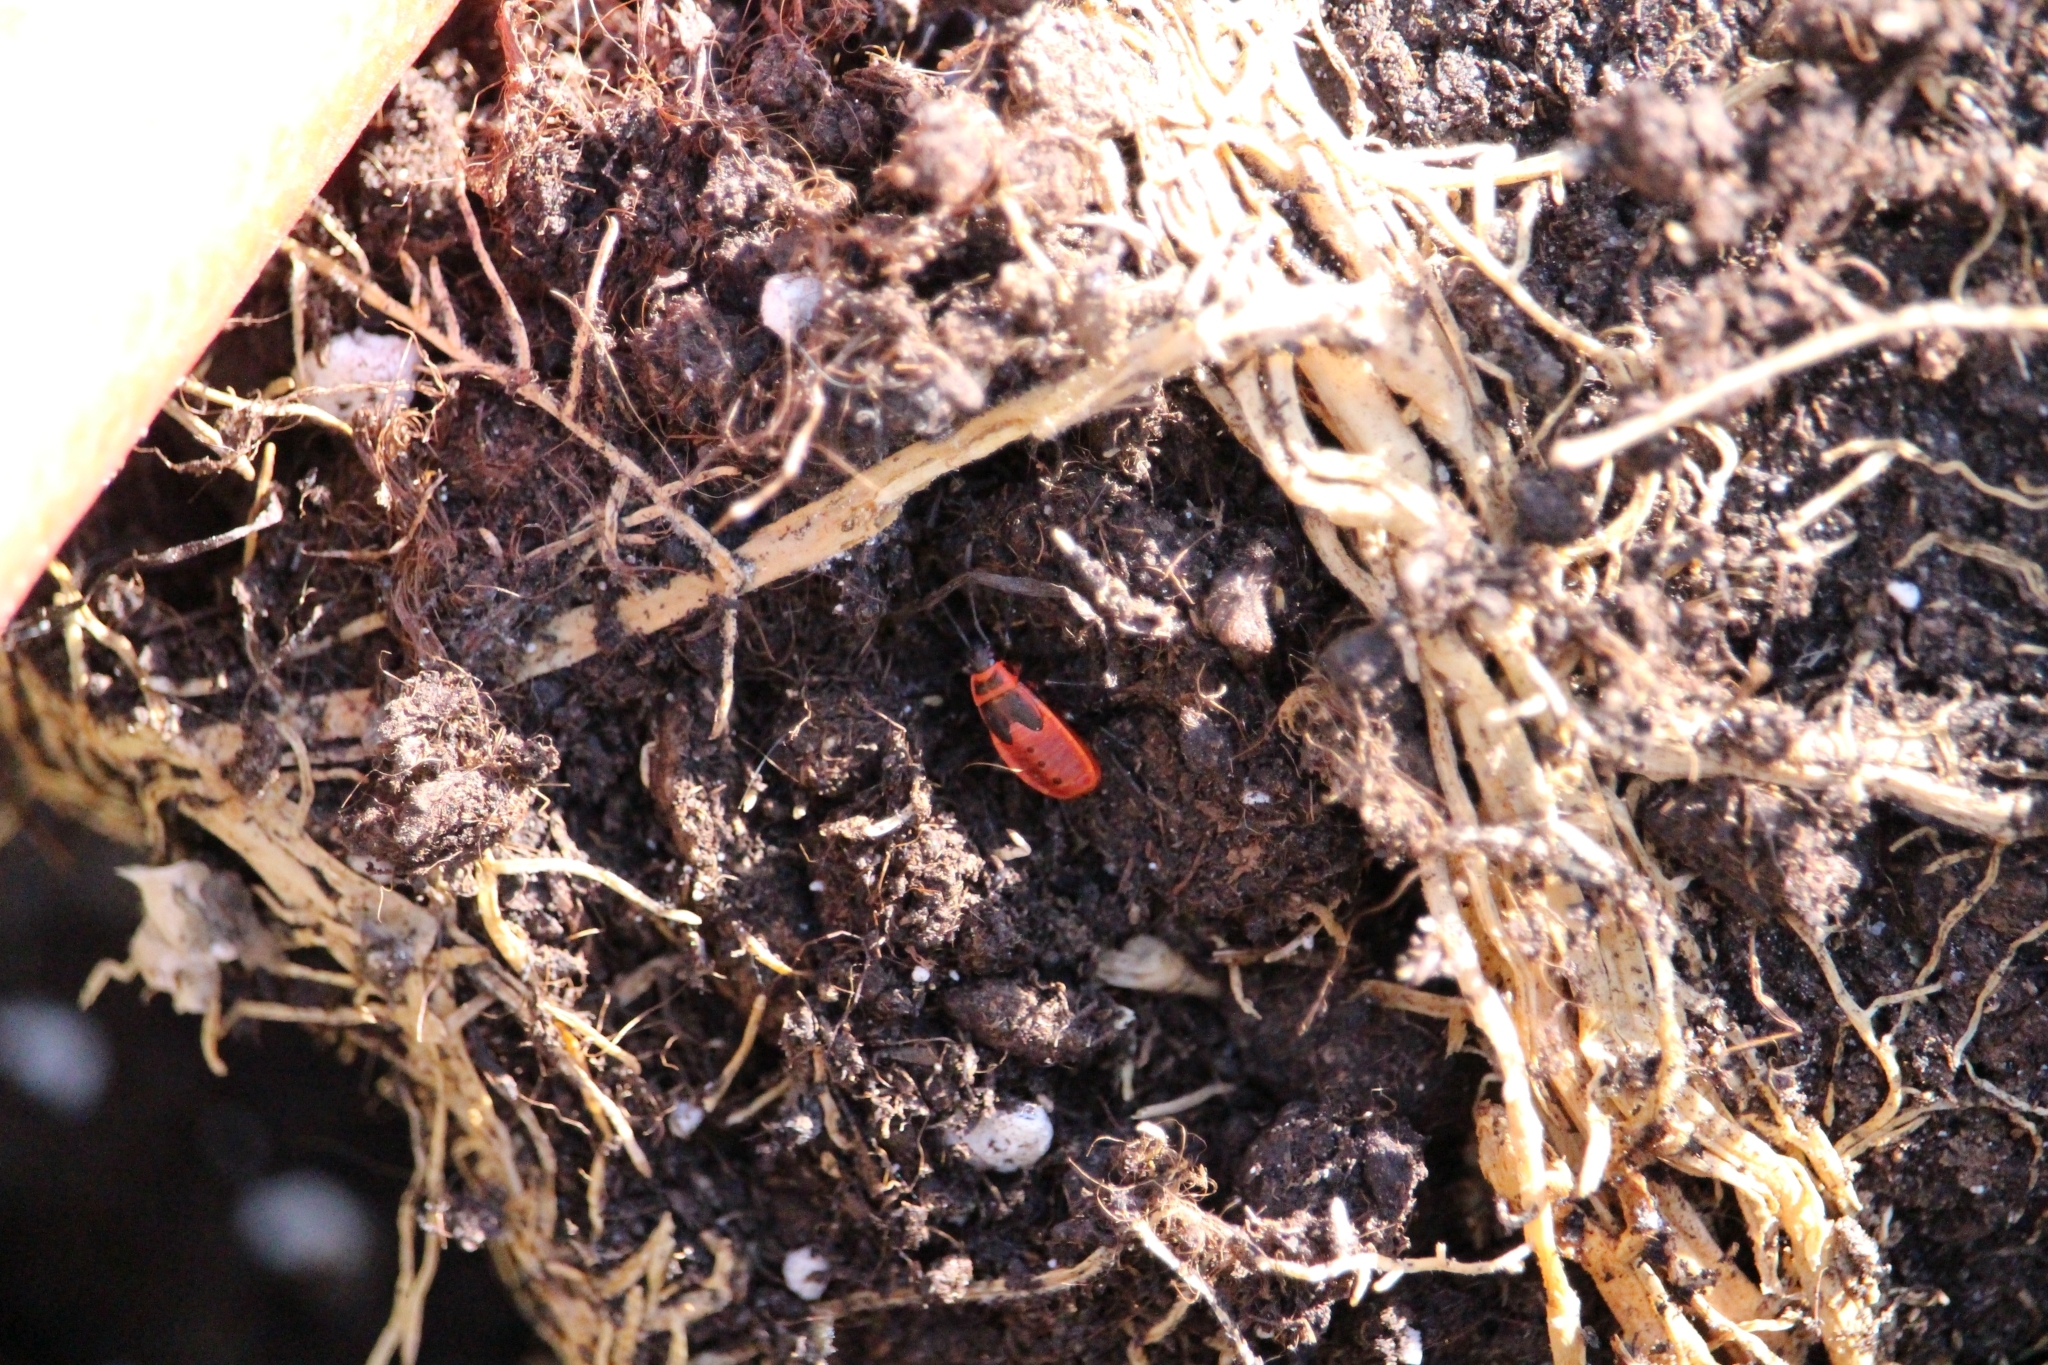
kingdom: Animalia
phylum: Arthropoda
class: Insecta
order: Hemiptera
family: Pyrrhocoridae
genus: Pyrrhocoris
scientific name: Pyrrhocoris apterus
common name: Firebug
